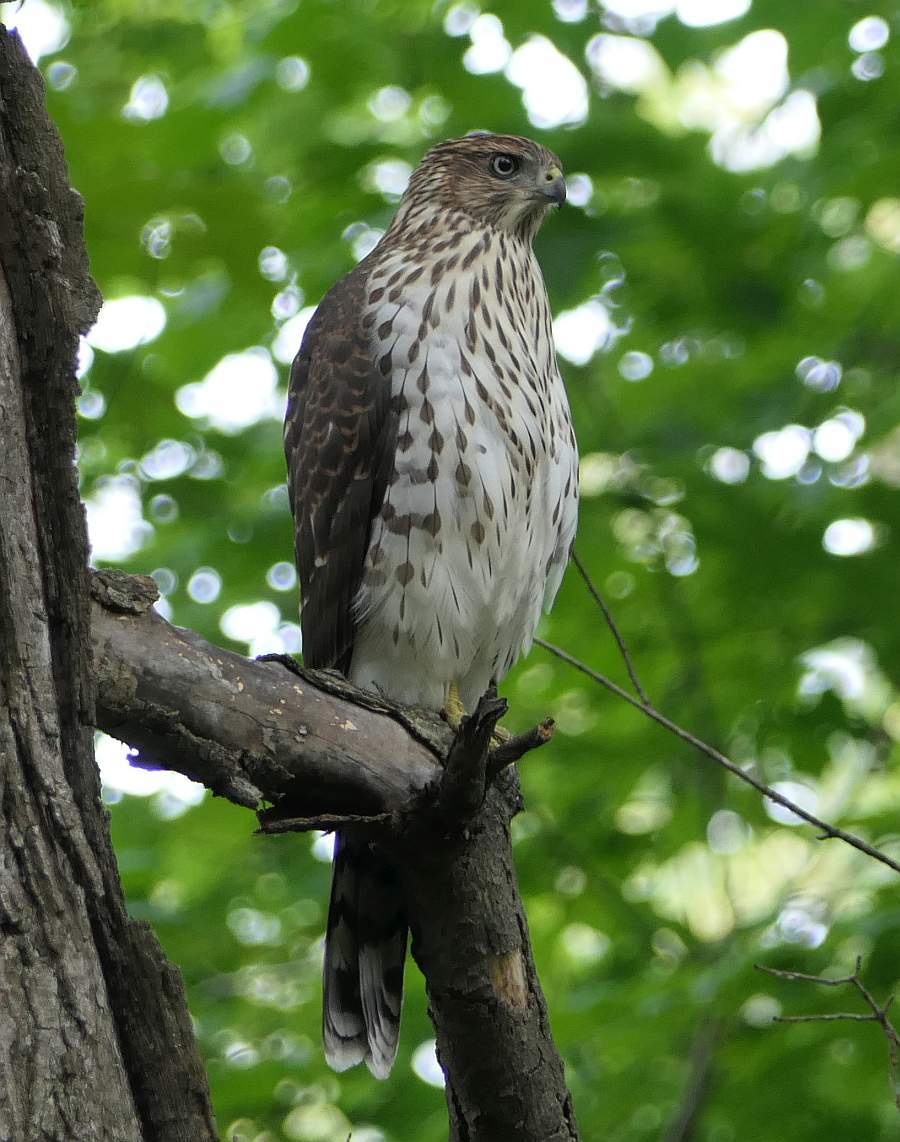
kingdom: Animalia
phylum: Chordata
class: Aves
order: Accipitriformes
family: Accipitridae
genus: Accipiter
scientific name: Accipiter cooperii
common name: Cooper's hawk
